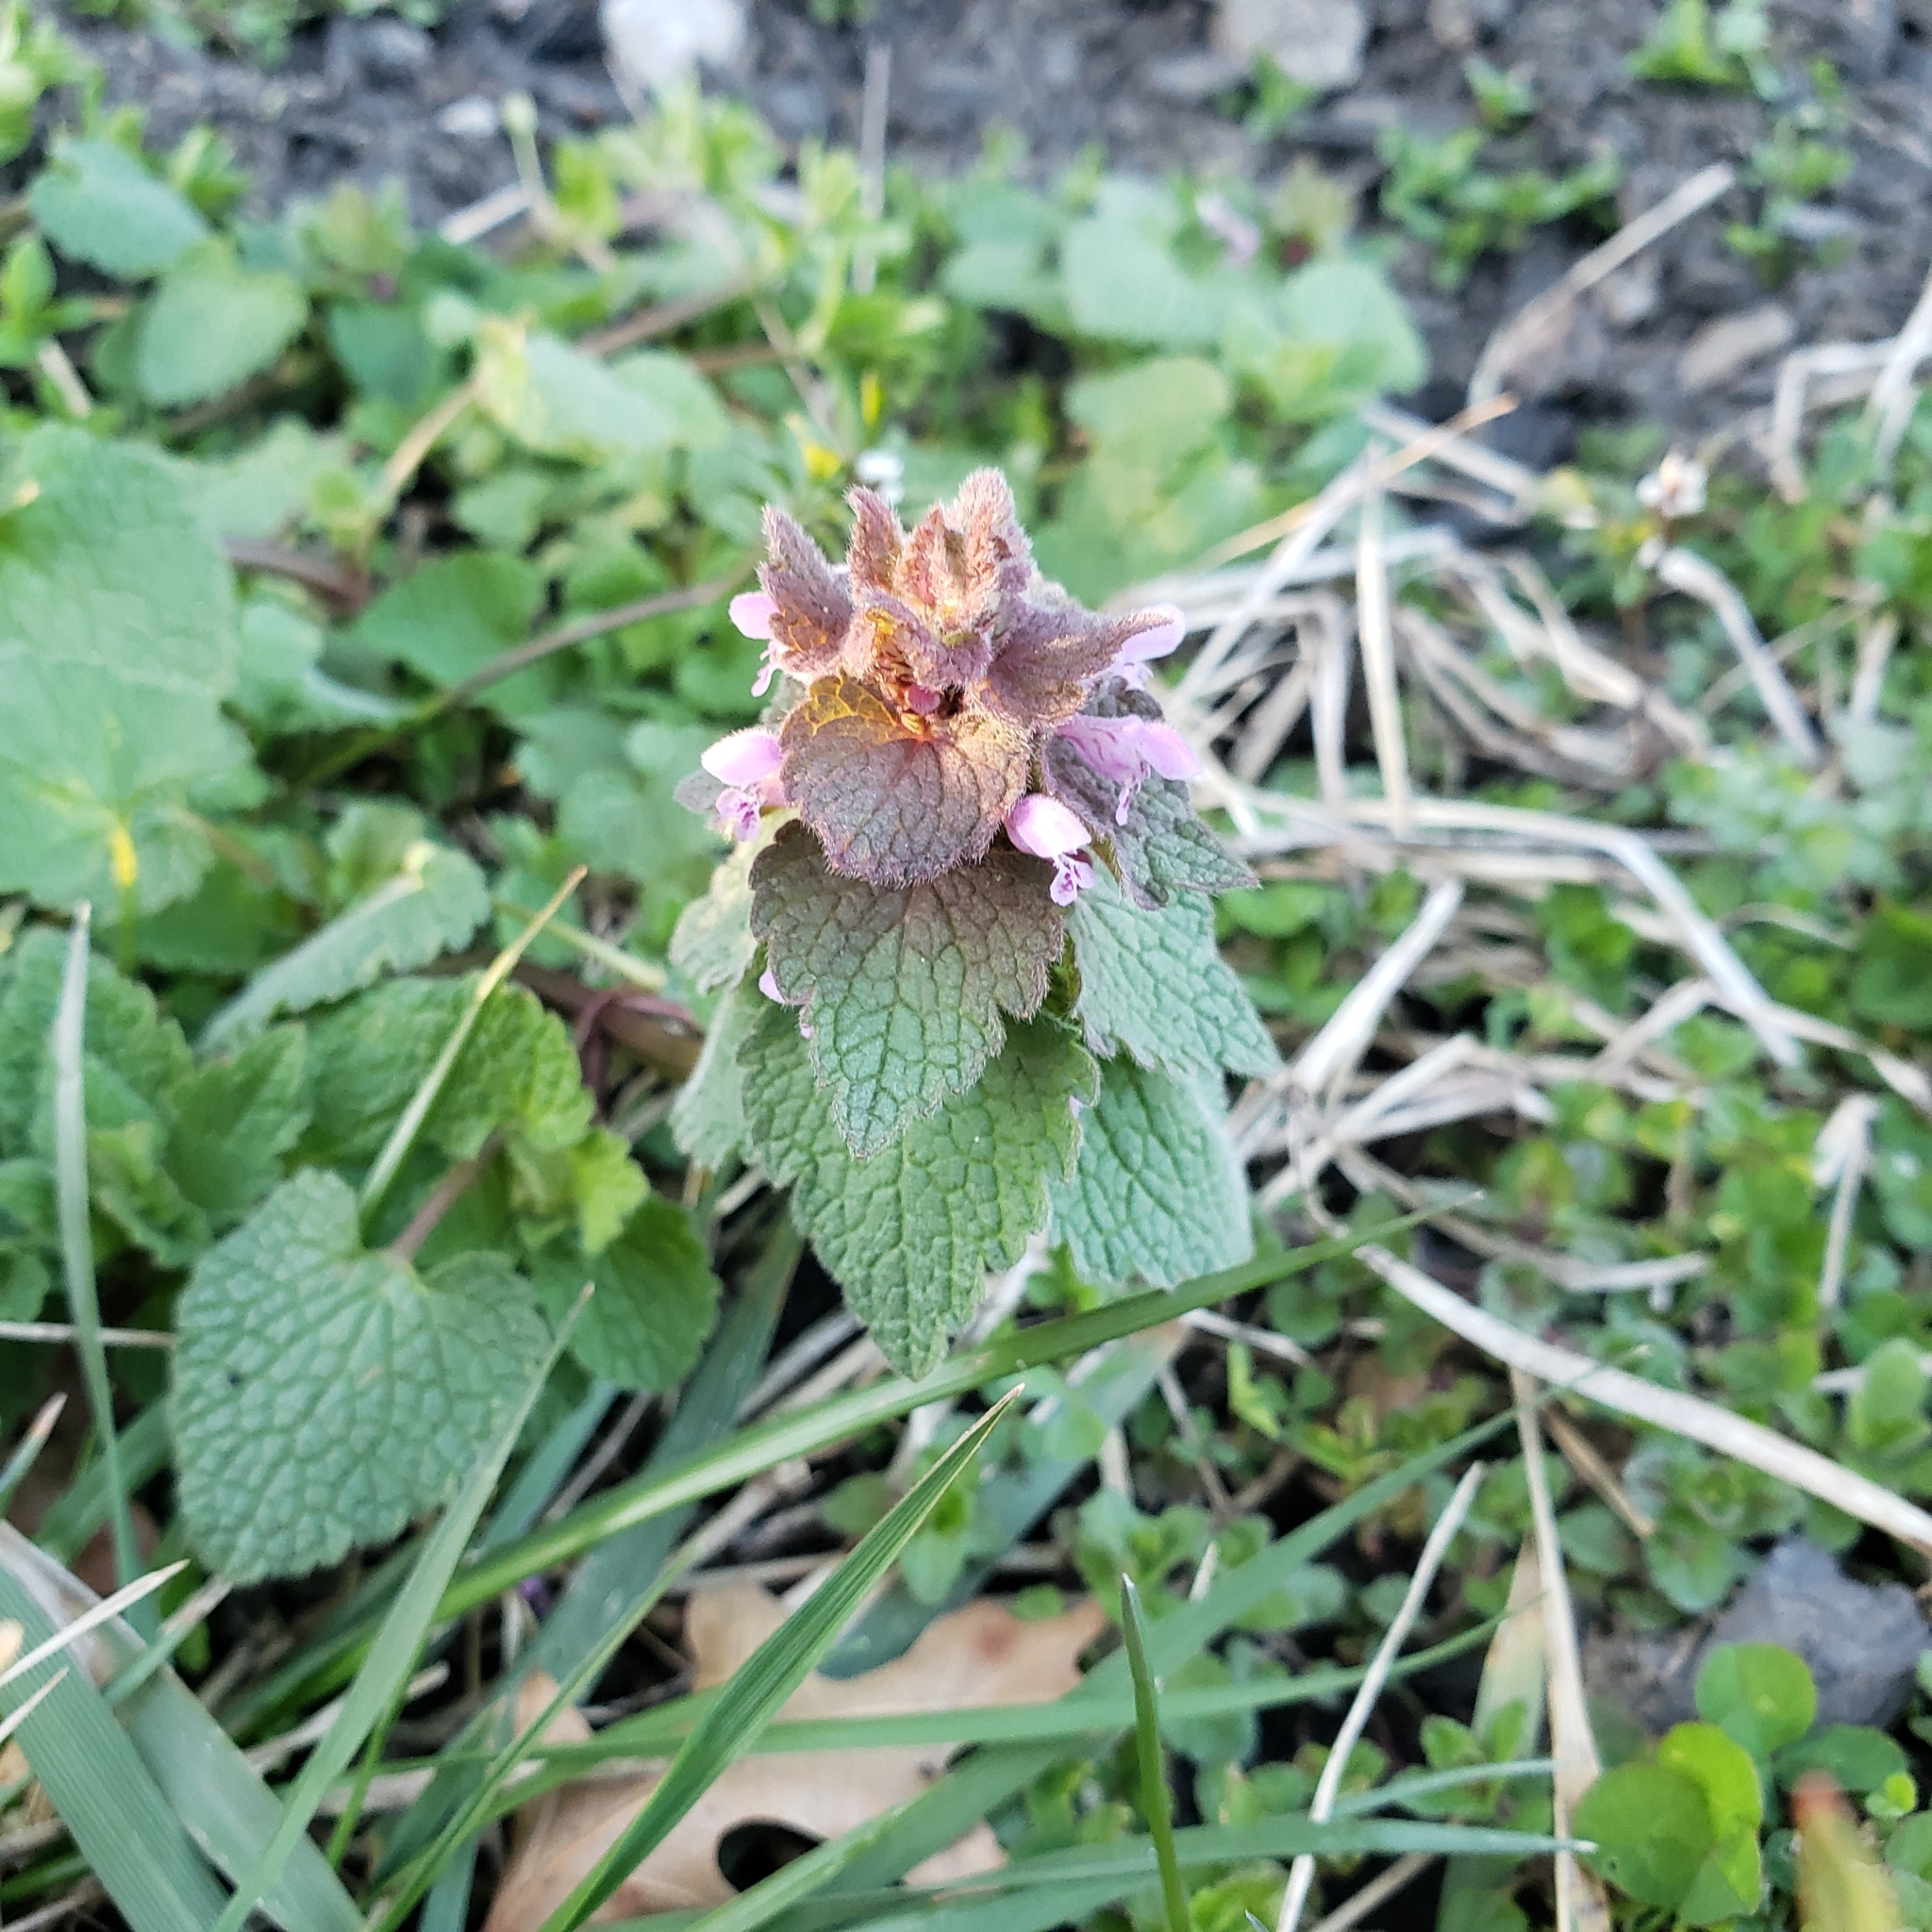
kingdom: Plantae
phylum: Tracheophyta
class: Magnoliopsida
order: Lamiales
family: Lamiaceae
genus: Lamium
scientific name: Lamium purpureum
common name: Red dead-nettle
